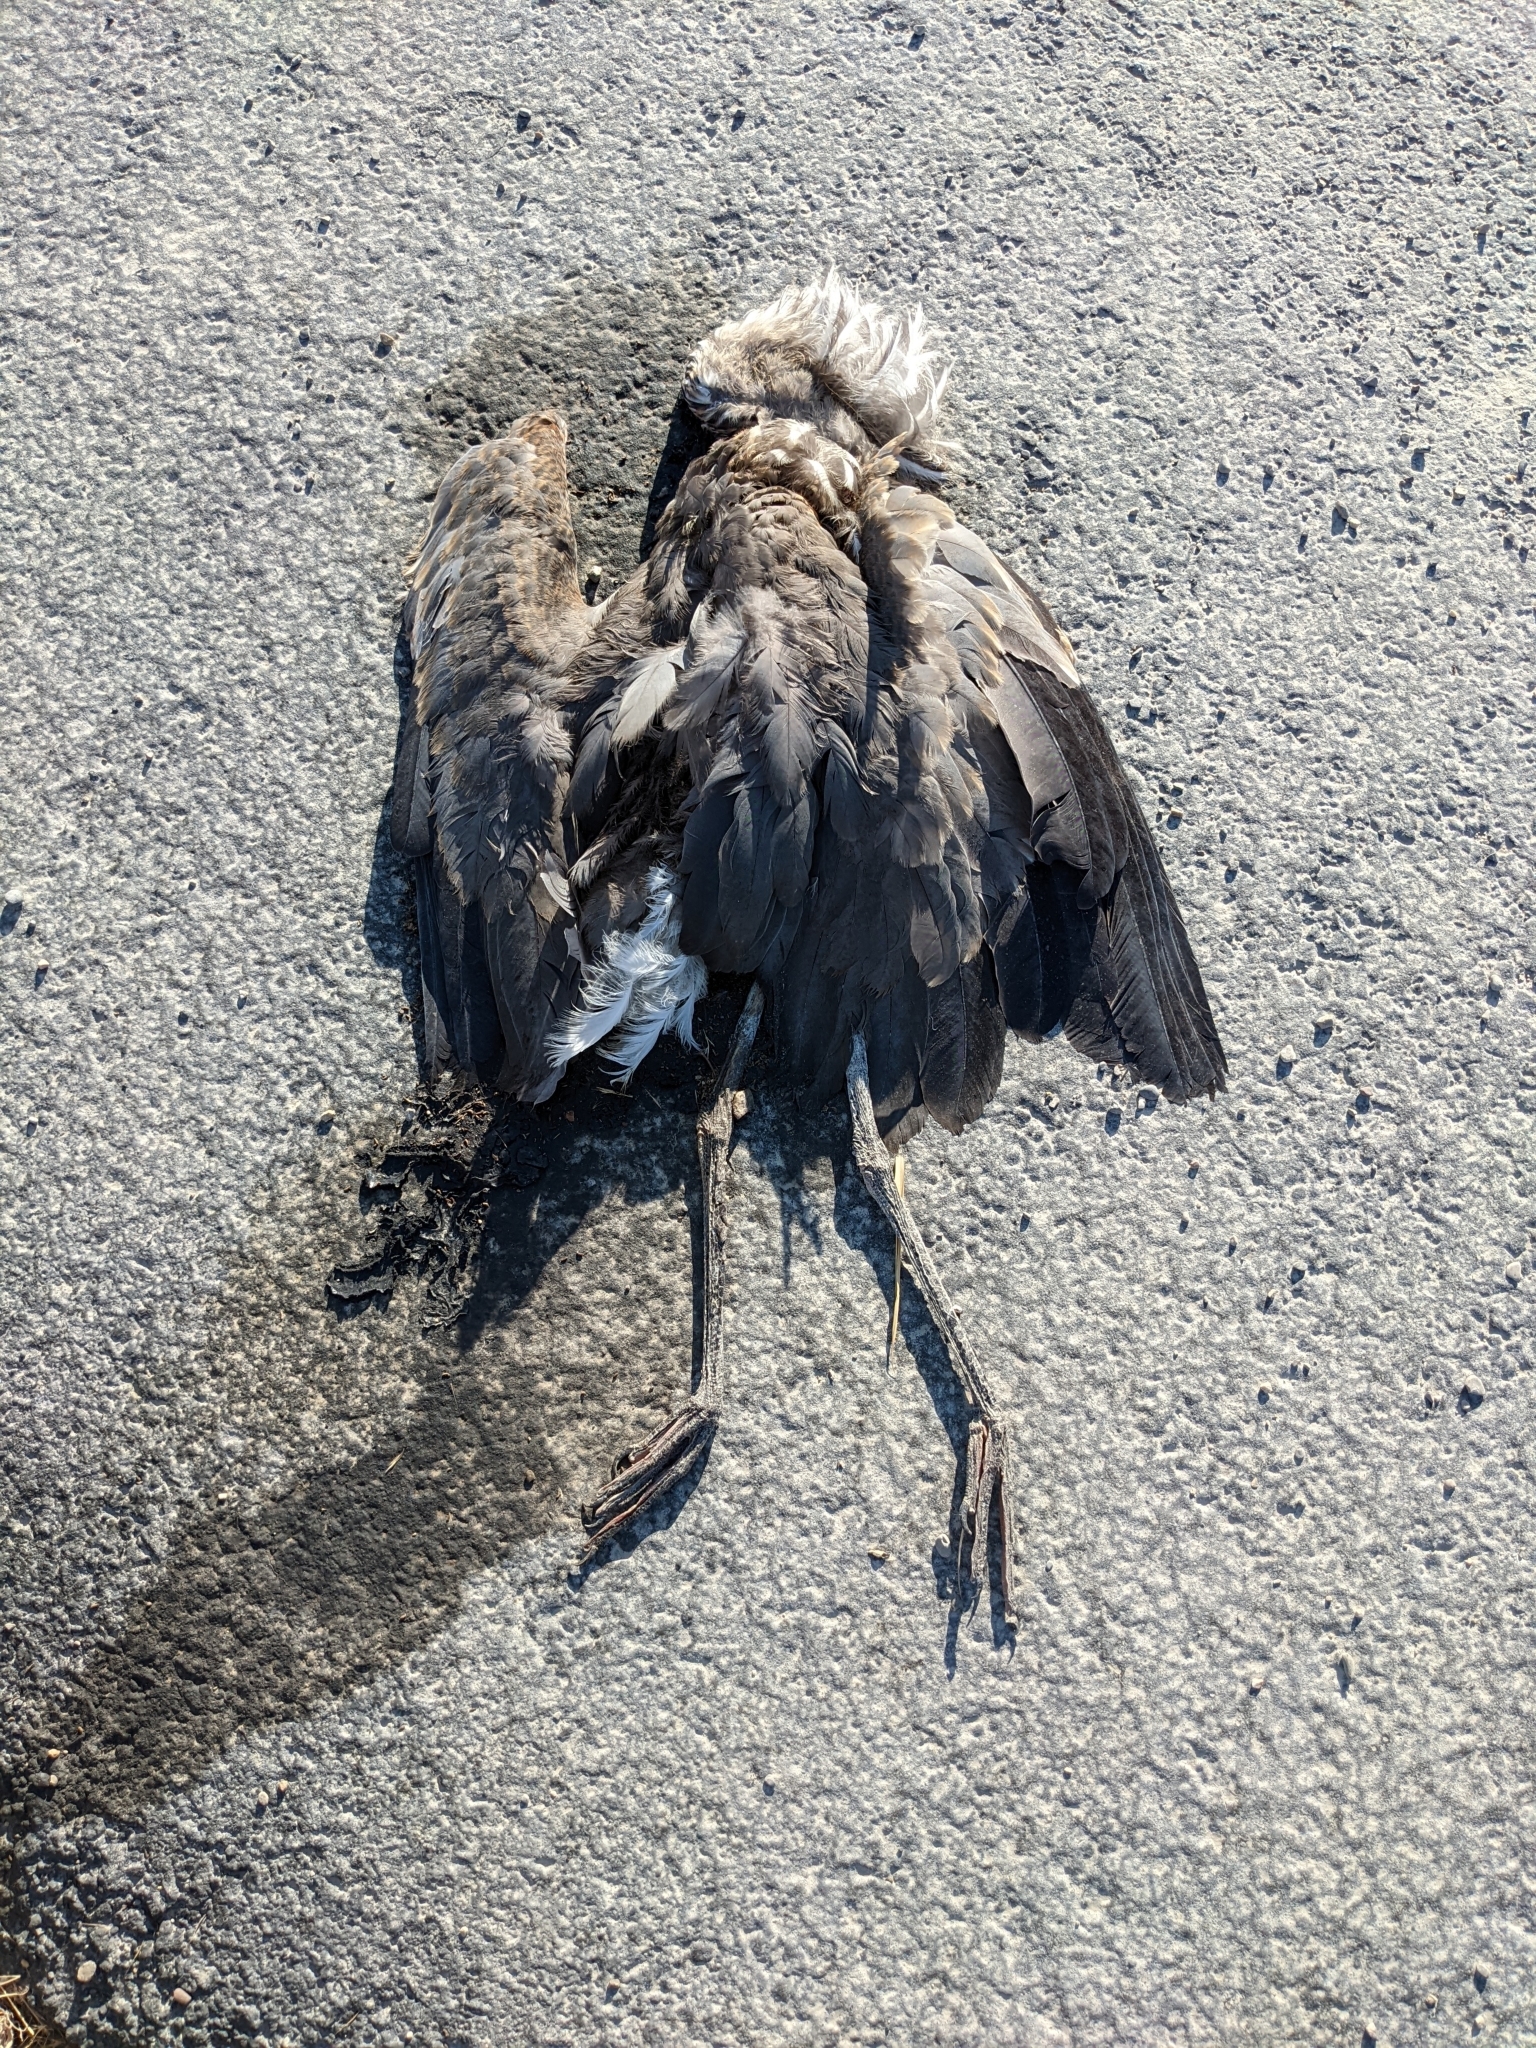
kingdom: Animalia
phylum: Chordata
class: Aves
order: Pelecaniformes
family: Ardeidae
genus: Ardea
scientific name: Ardea herodias
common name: Great blue heron
